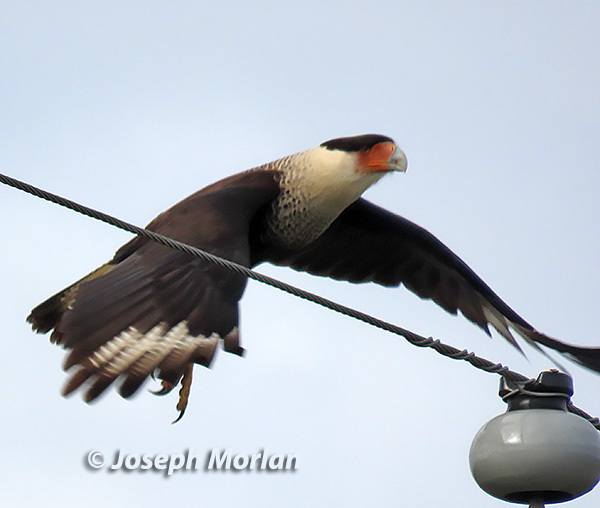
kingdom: Animalia
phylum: Chordata
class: Aves
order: Falconiformes
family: Falconidae
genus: Caracara
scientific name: Caracara plancus
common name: Southern caracara
